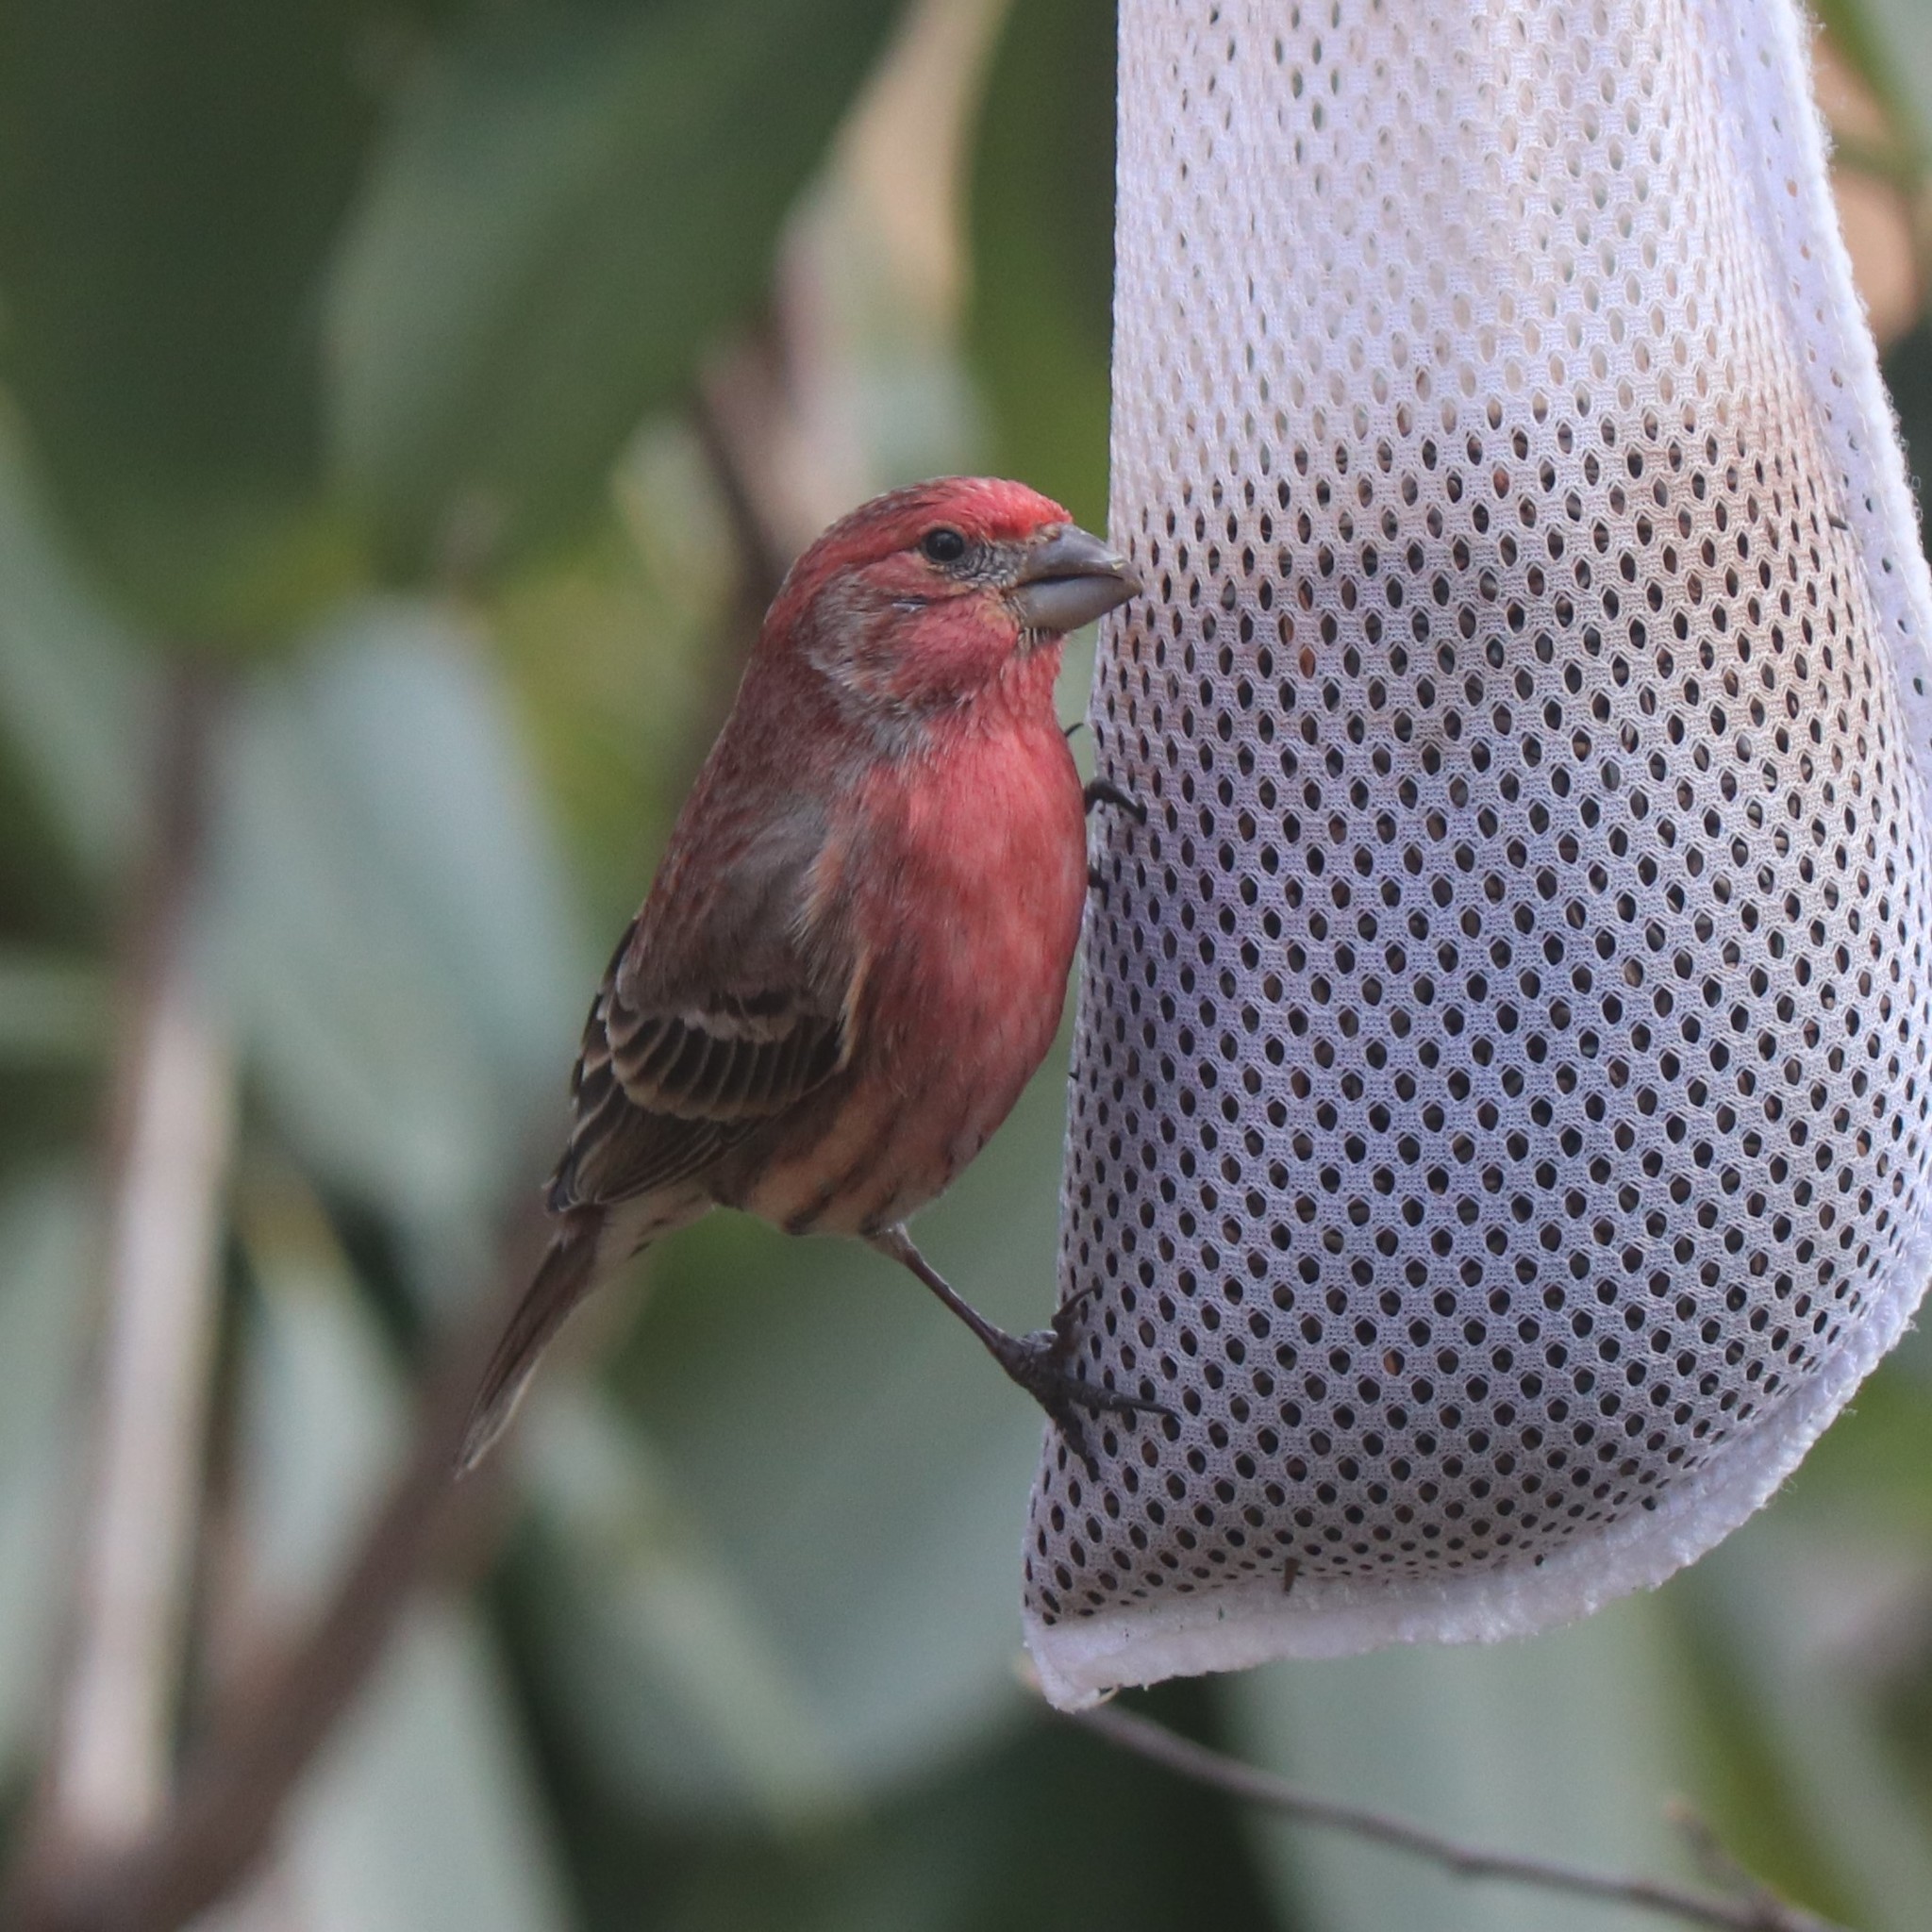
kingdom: Animalia
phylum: Chordata
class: Aves
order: Passeriformes
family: Fringillidae
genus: Haemorhous
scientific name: Haemorhous mexicanus
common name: House finch
